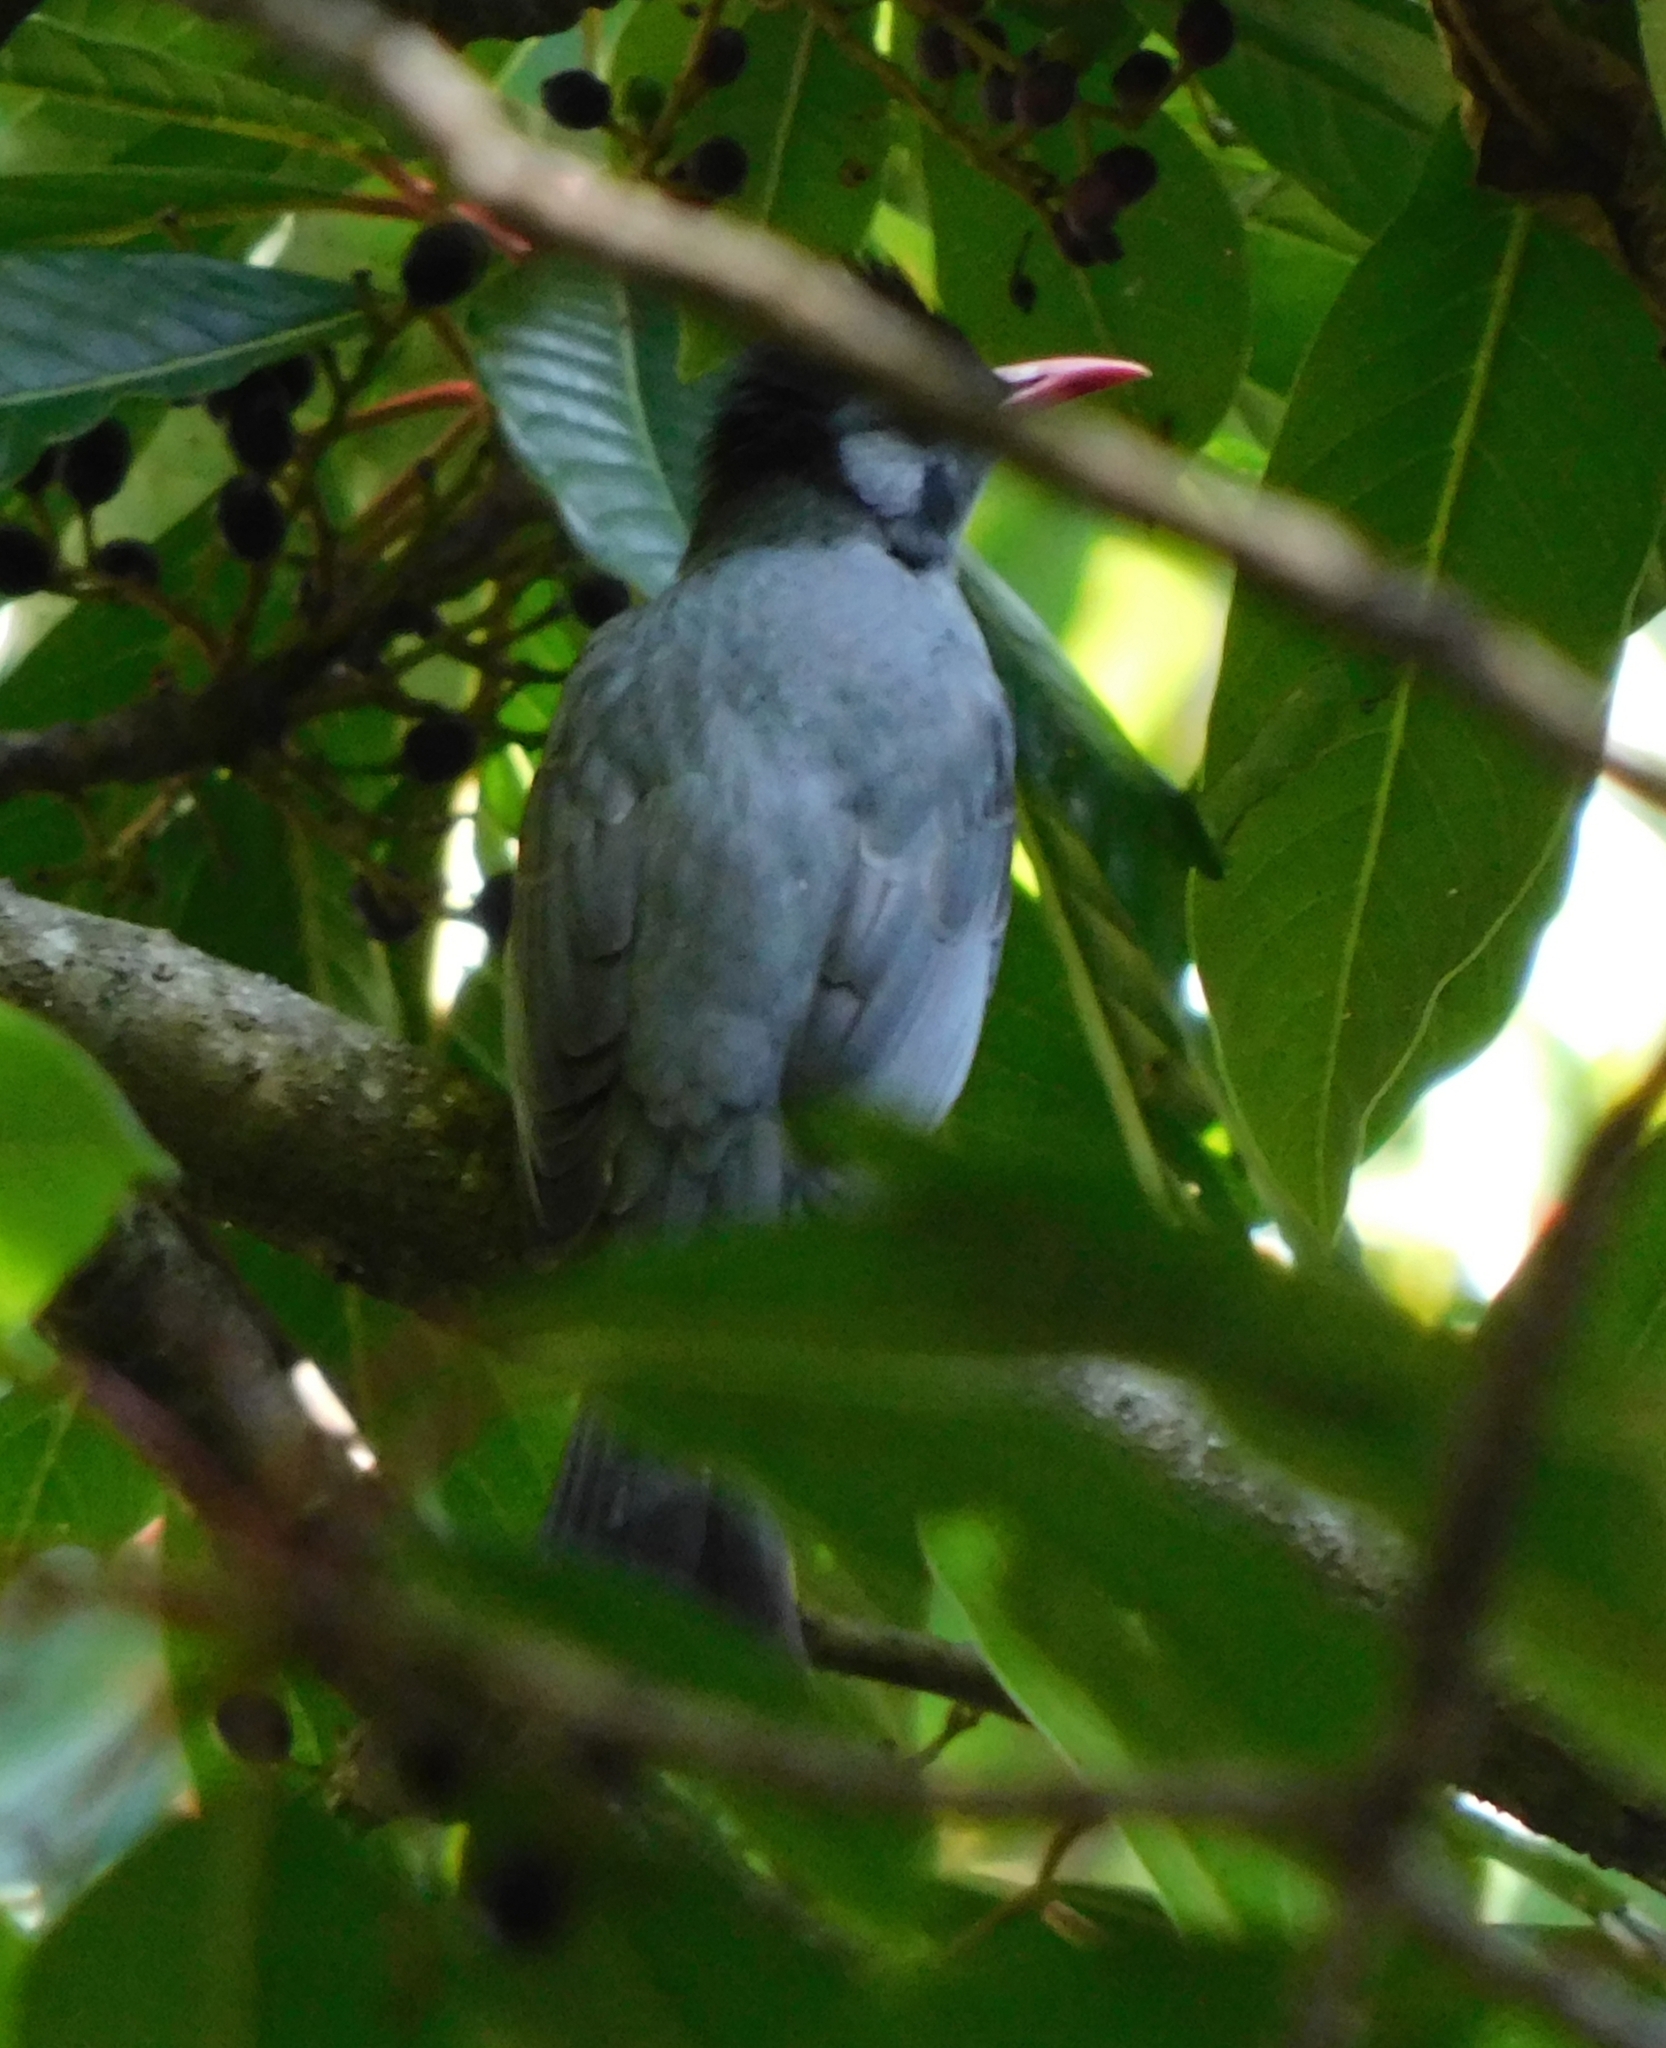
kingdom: Animalia
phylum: Chordata
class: Aves
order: Passeriformes
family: Pycnonotidae
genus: Hypsipetes
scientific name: Hypsipetes leucocephalus
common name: Black bulbul
